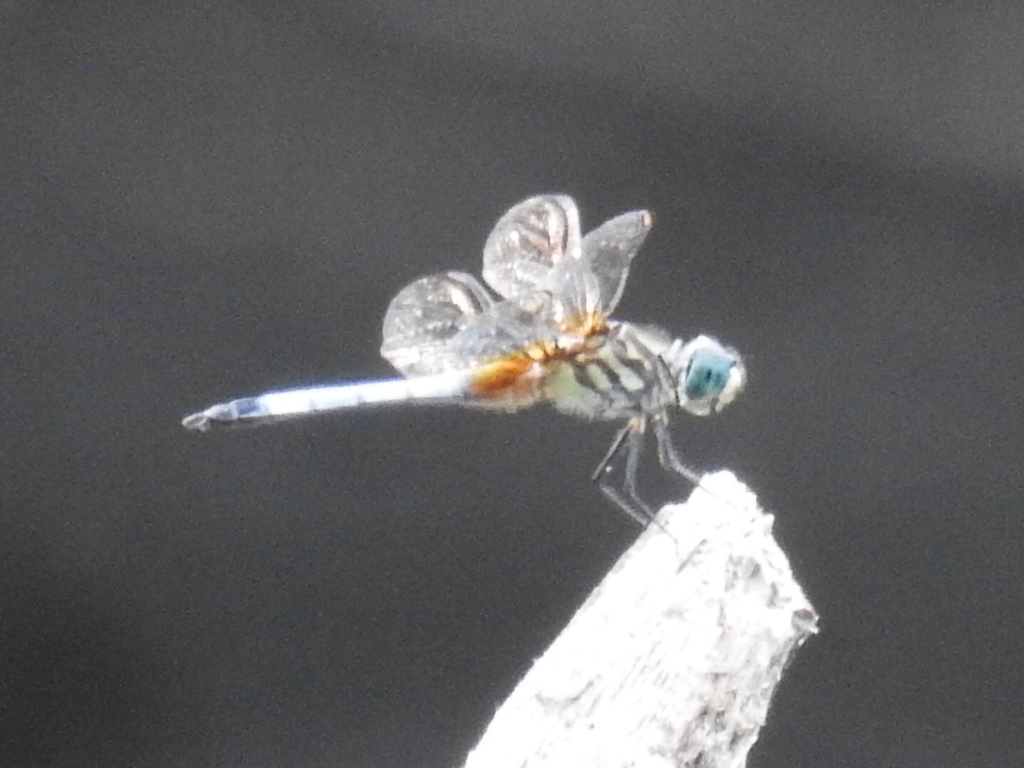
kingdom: Animalia
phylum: Arthropoda
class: Insecta
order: Odonata
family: Libellulidae
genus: Pachydiplax
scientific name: Pachydiplax longipennis
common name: Blue dasher
